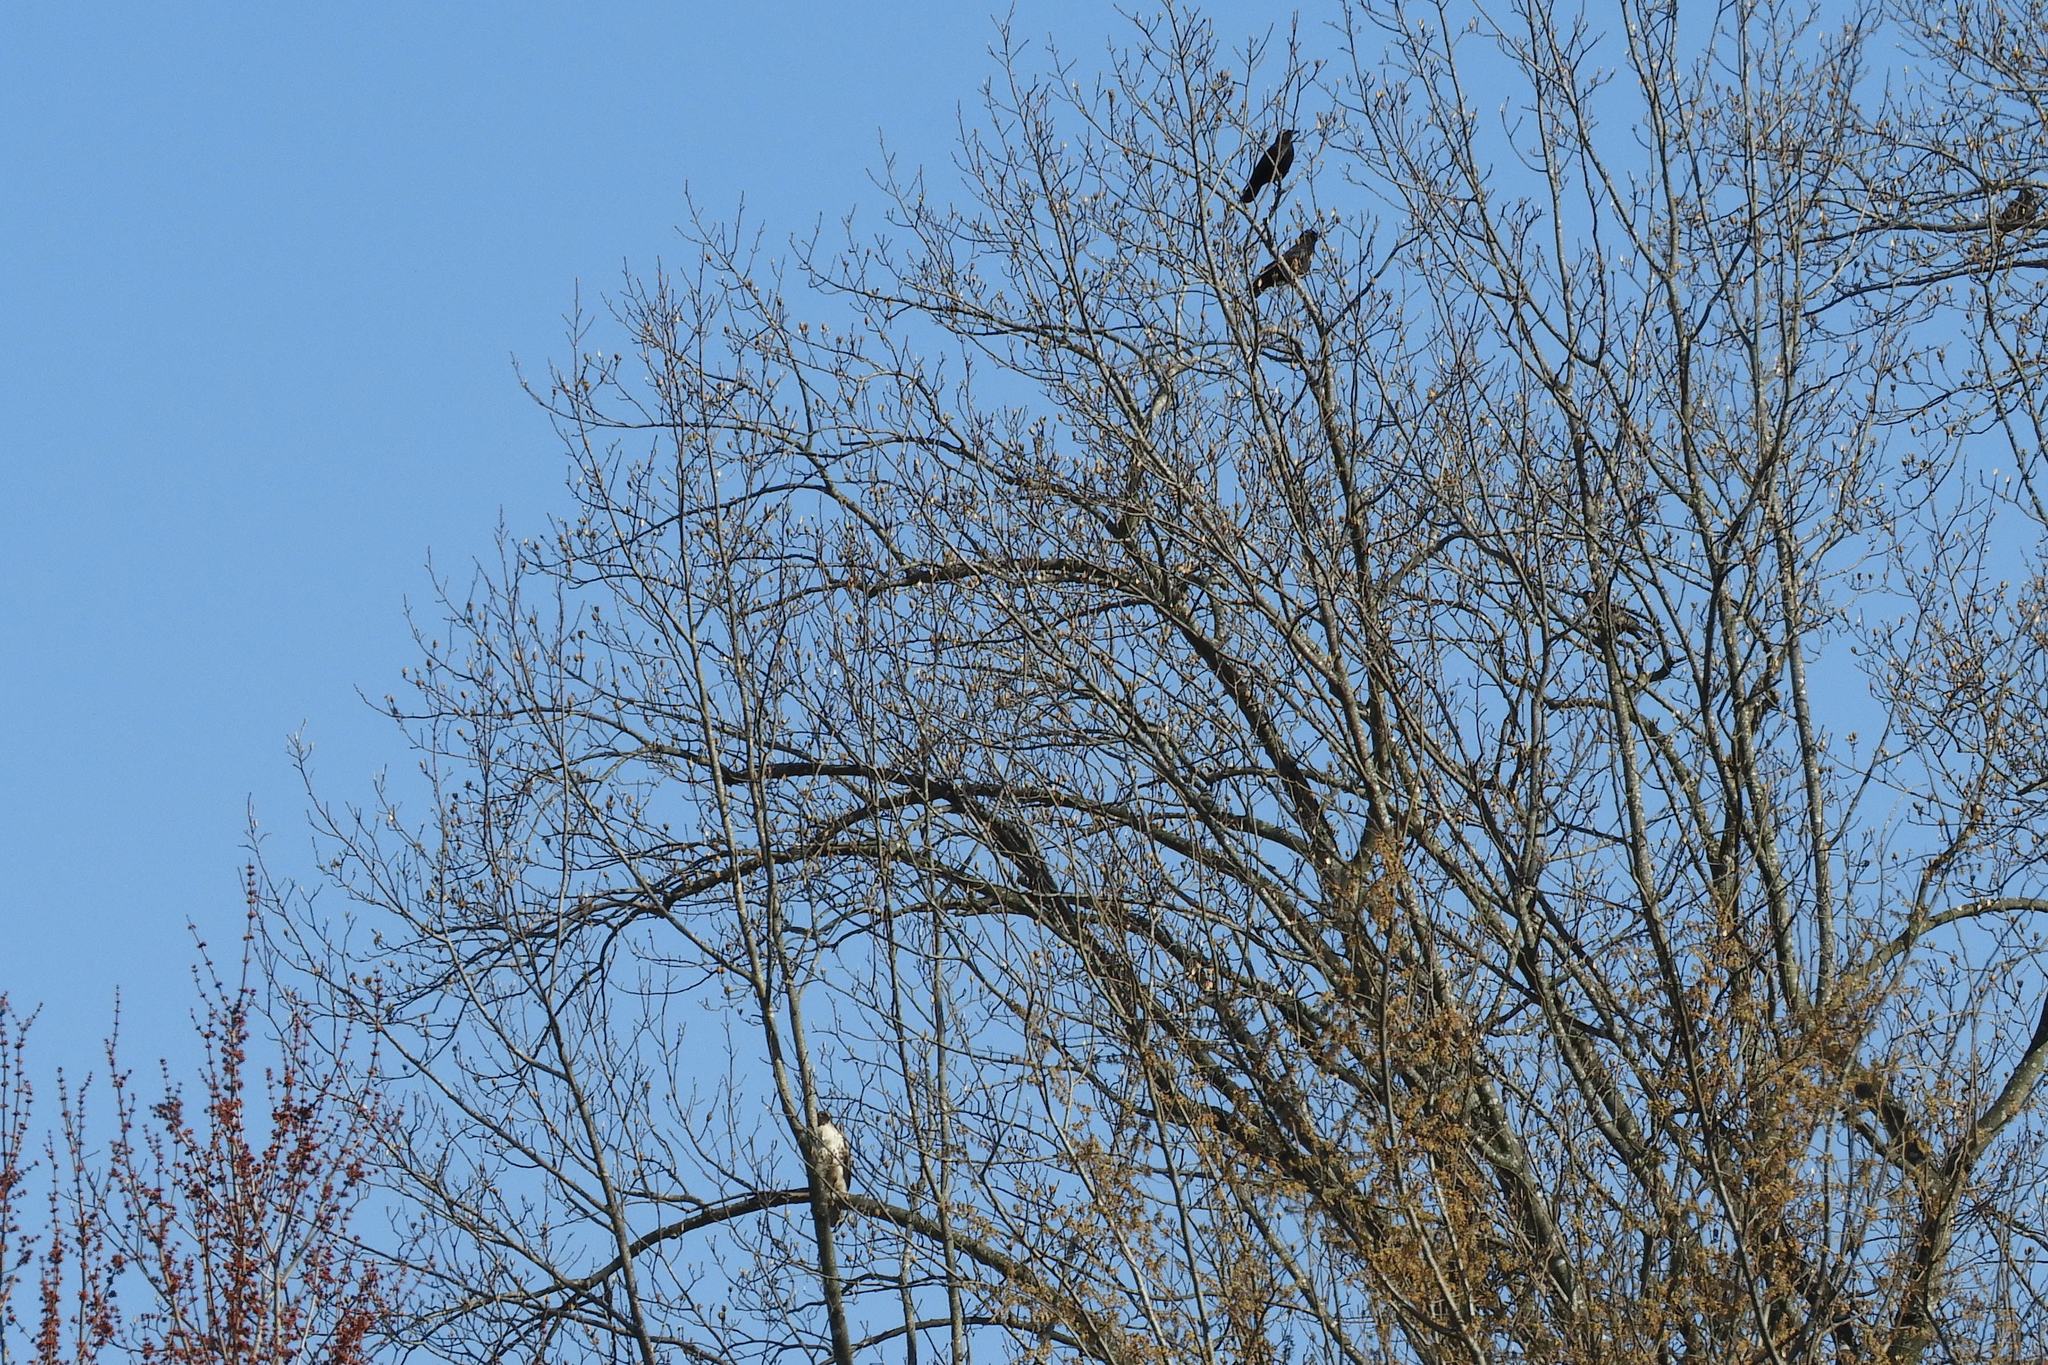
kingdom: Animalia
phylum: Chordata
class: Aves
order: Accipitriformes
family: Accipitridae
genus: Buteo
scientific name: Buteo jamaicensis
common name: Red-tailed hawk
